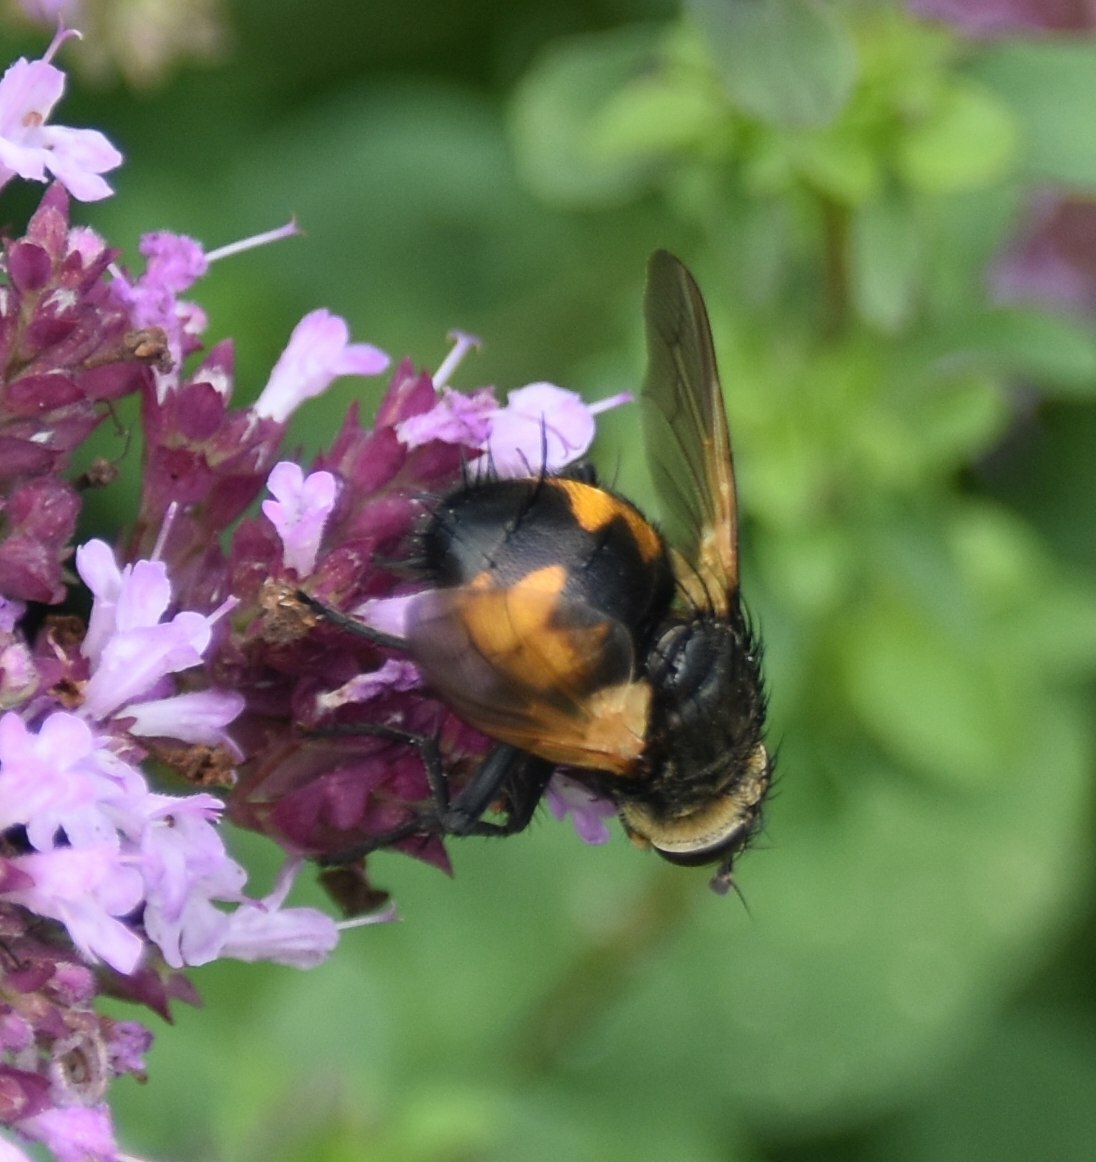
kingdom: Animalia
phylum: Arthropoda
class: Insecta
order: Diptera
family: Tachinidae
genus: Nowickia
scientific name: Nowickia ferox
